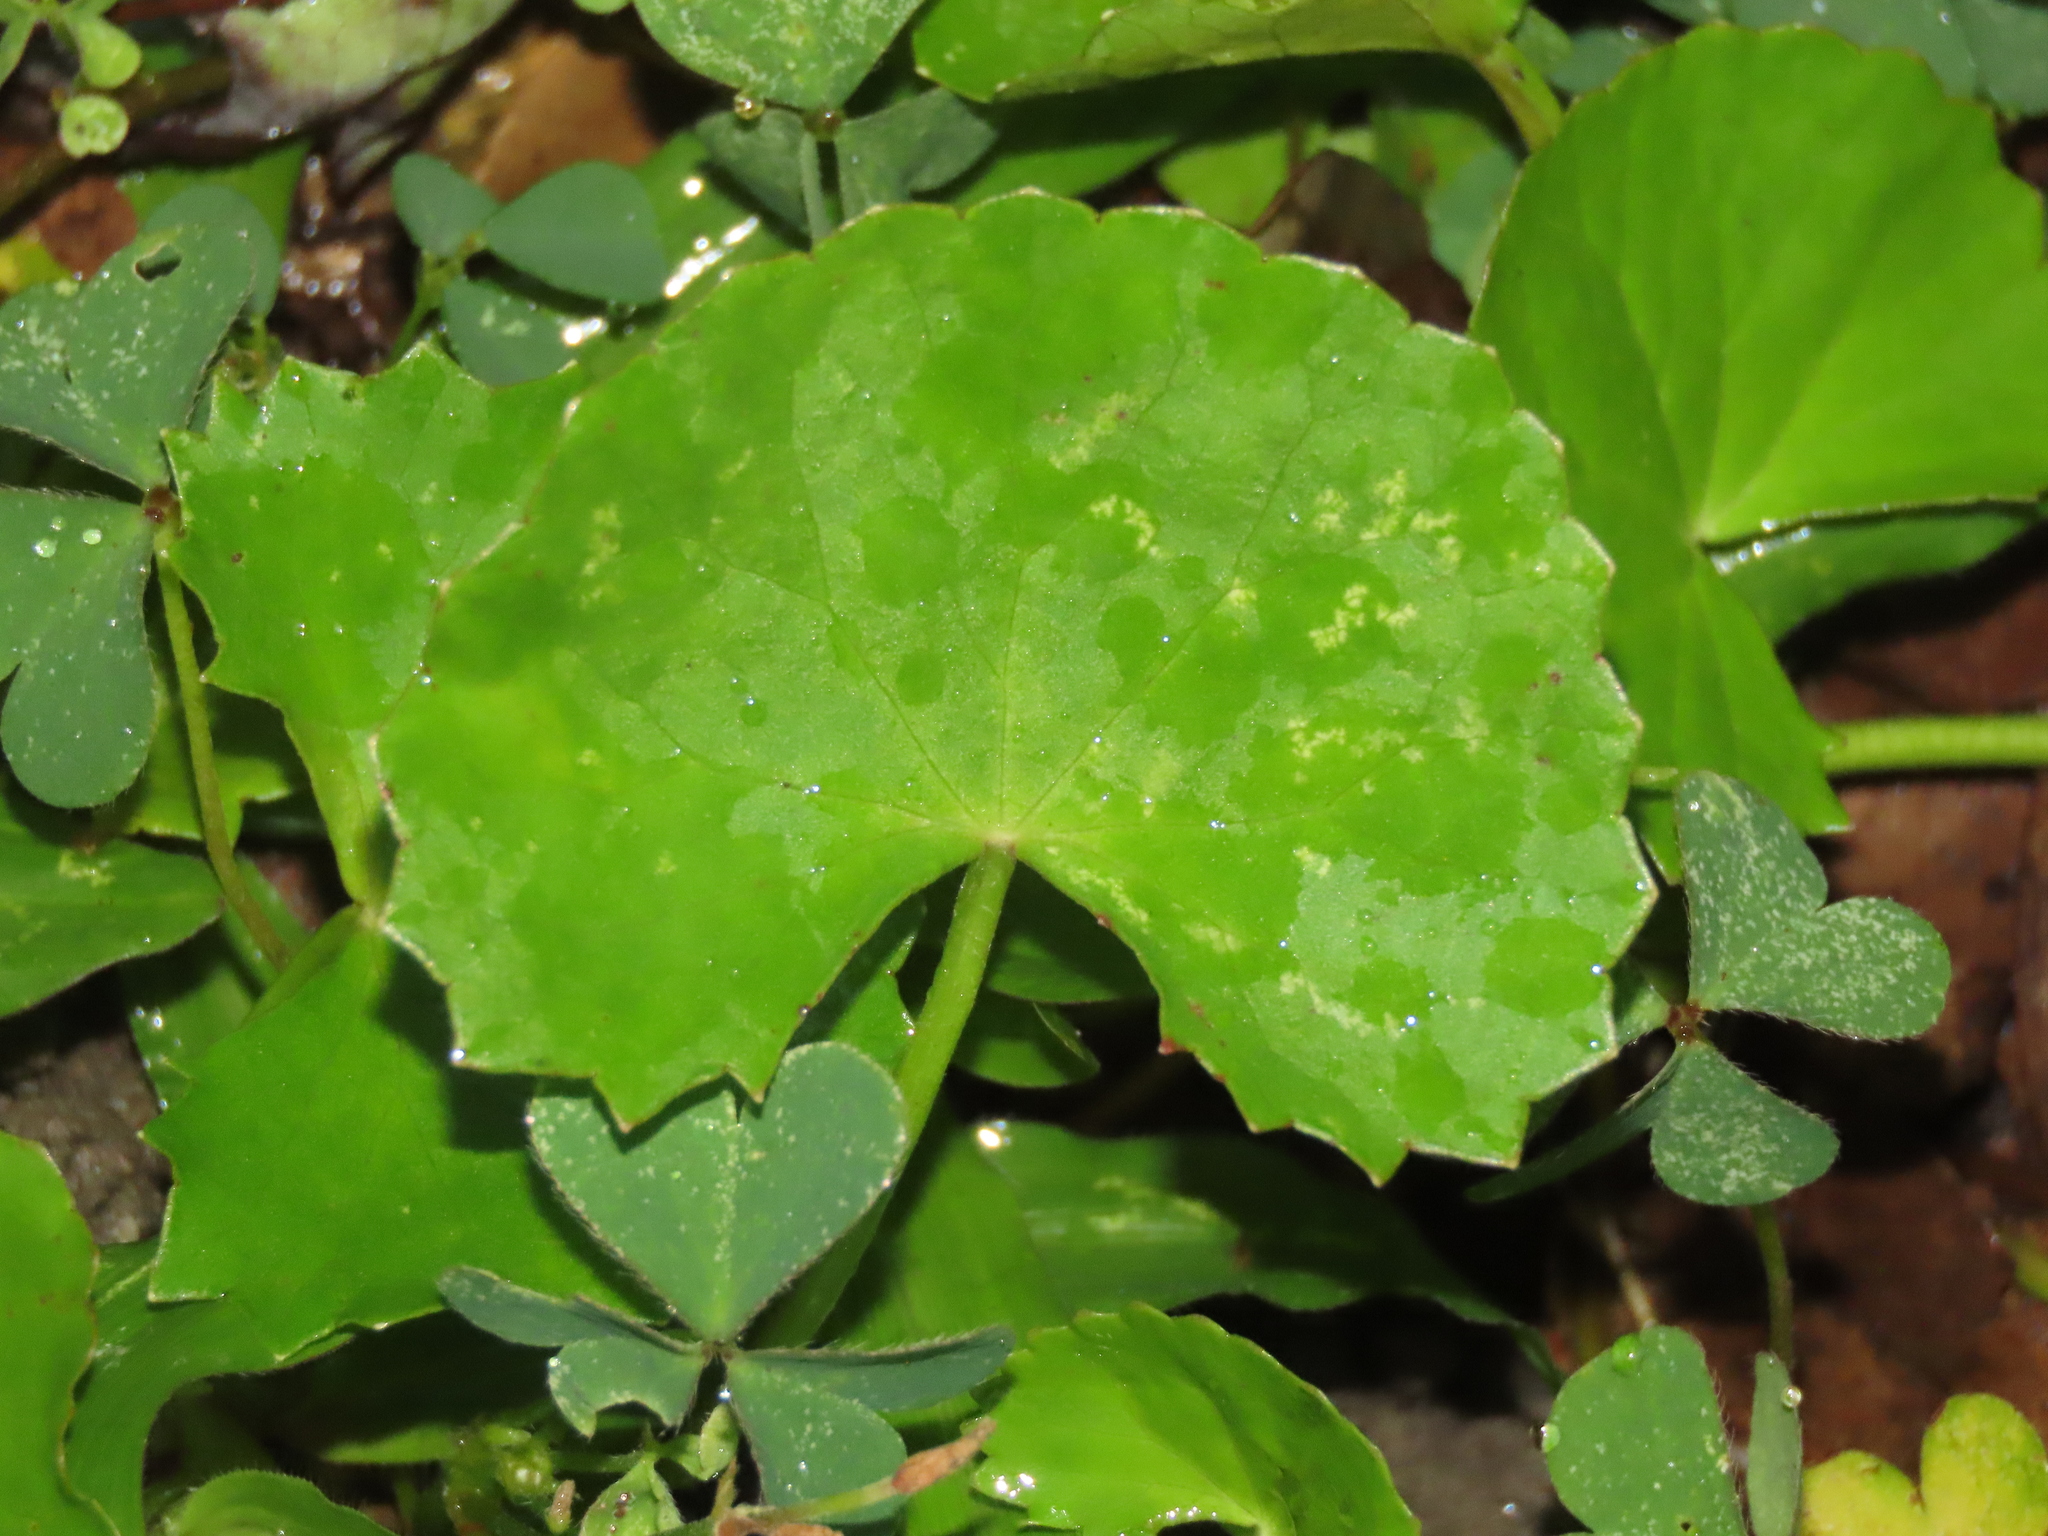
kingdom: Plantae
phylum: Tracheophyta
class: Magnoliopsida
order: Apiales
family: Apiaceae
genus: Centella
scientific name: Centella asiatica
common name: Spadeleaf
